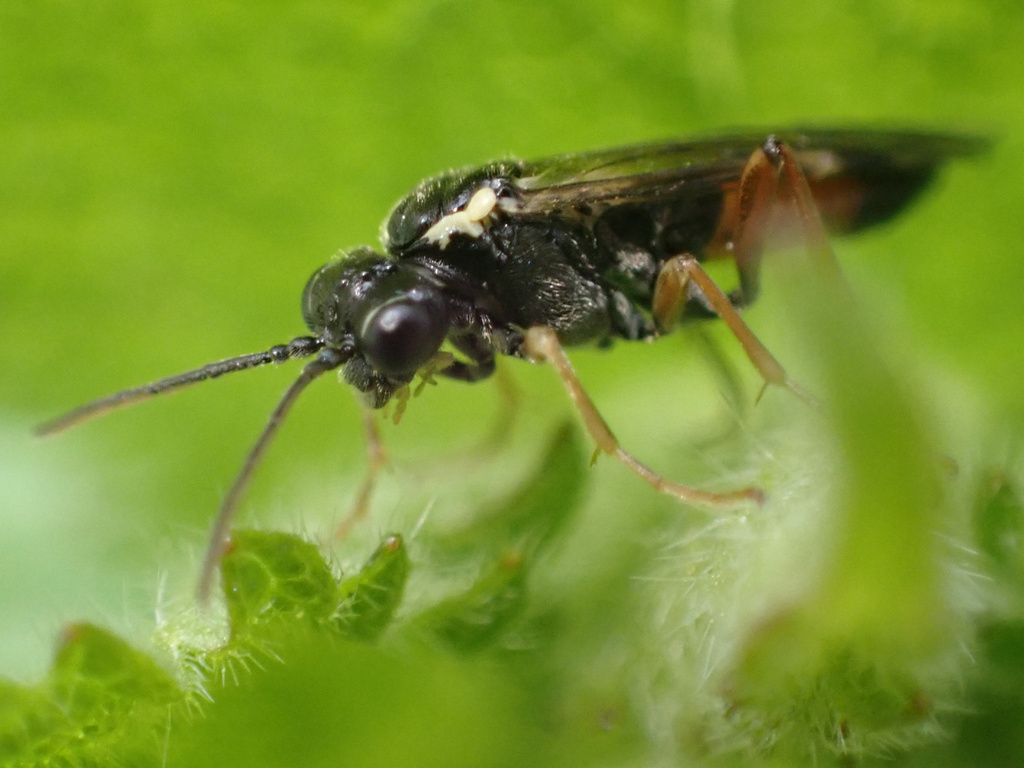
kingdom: Animalia
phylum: Arthropoda
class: Insecta
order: Hymenoptera
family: Tenthredinidae
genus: Aglaostigma
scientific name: Aglaostigma aucupariae
